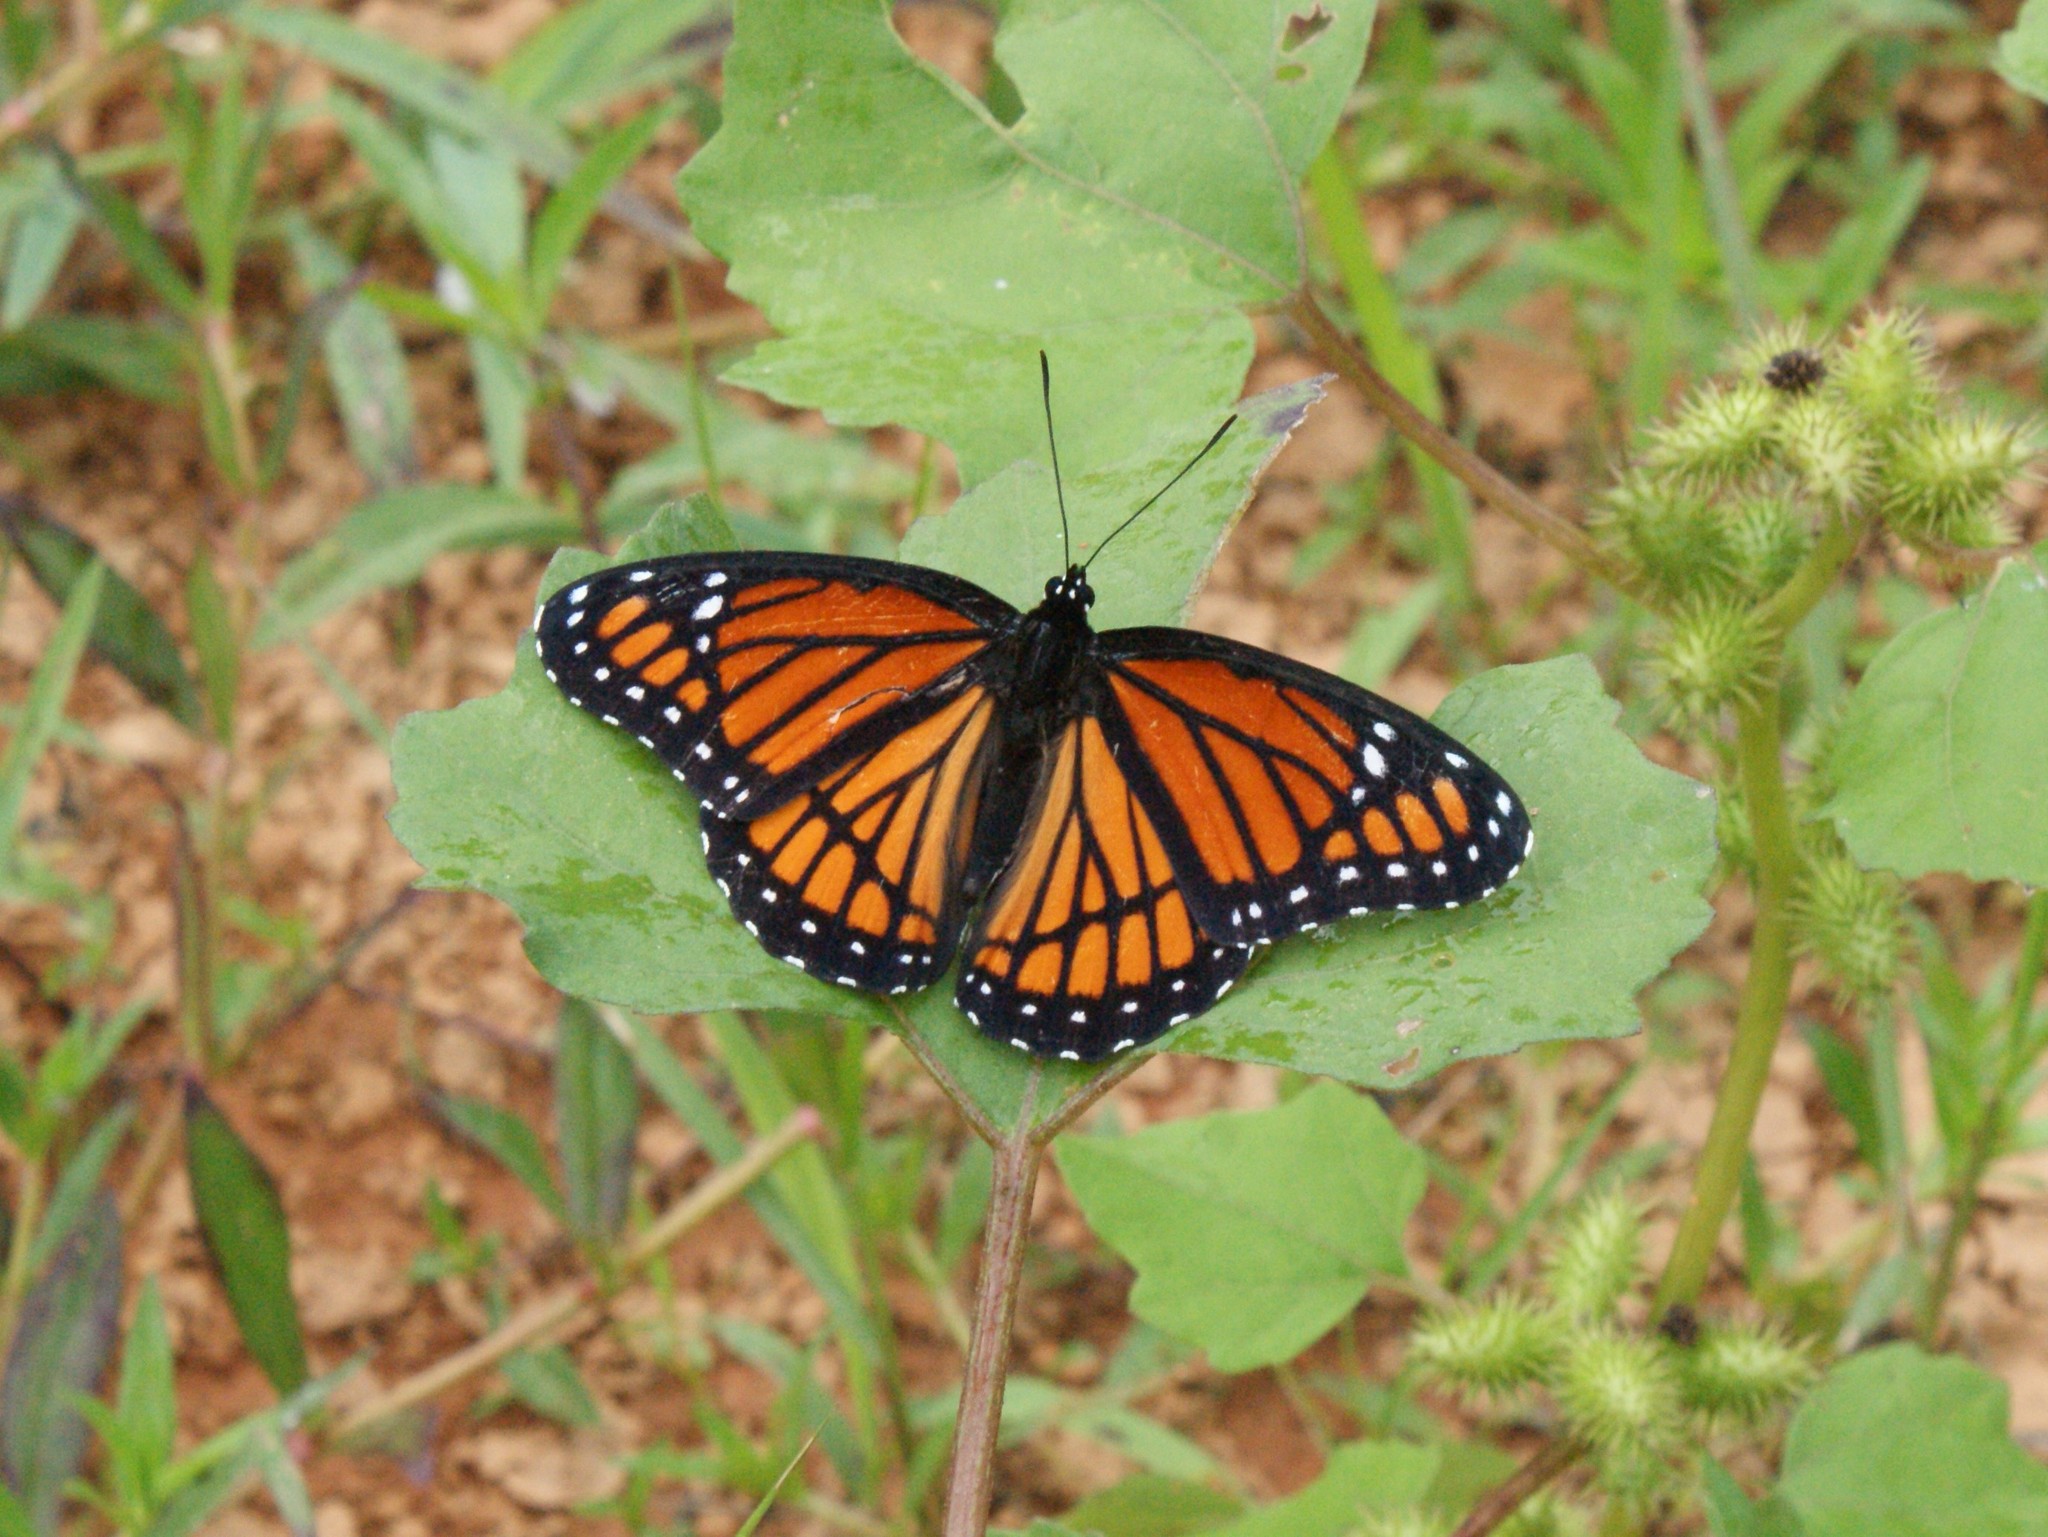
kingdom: Animalia
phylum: Arthropoda
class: Insecta
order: Lepidoptera
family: Nymphalidae
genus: Limenitis
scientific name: Limenitis archippus
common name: Viceroy
